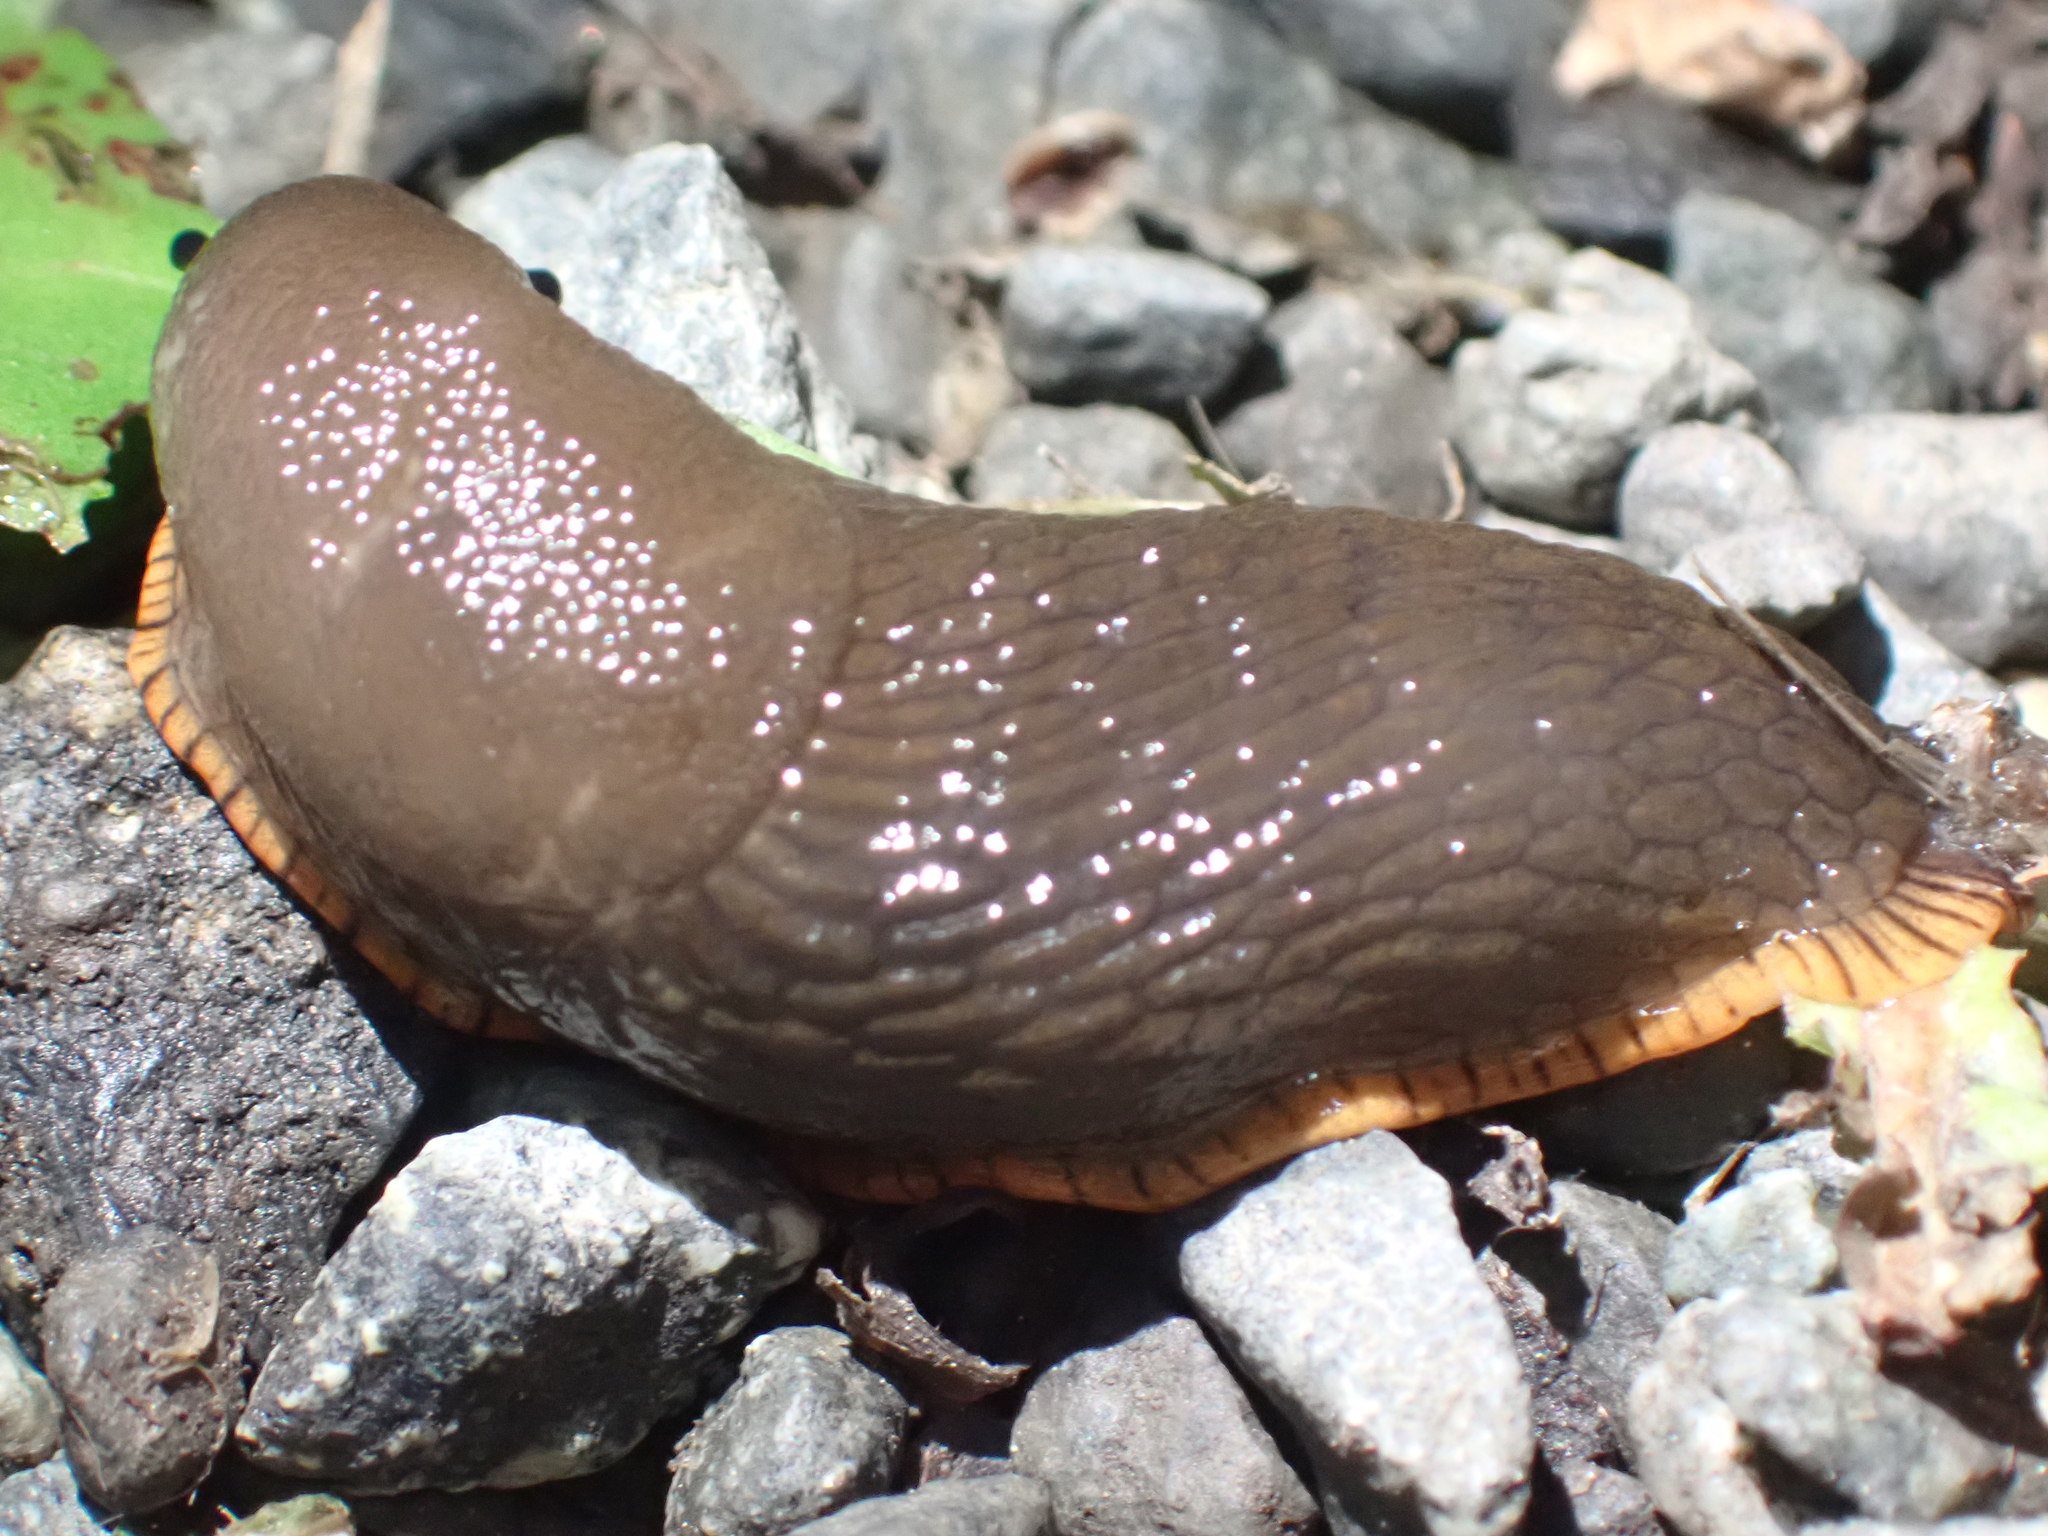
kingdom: Animalia
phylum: Mollusca
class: Gastropoda
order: Stylommatophora
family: Arionidae
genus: Arion
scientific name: Arion
